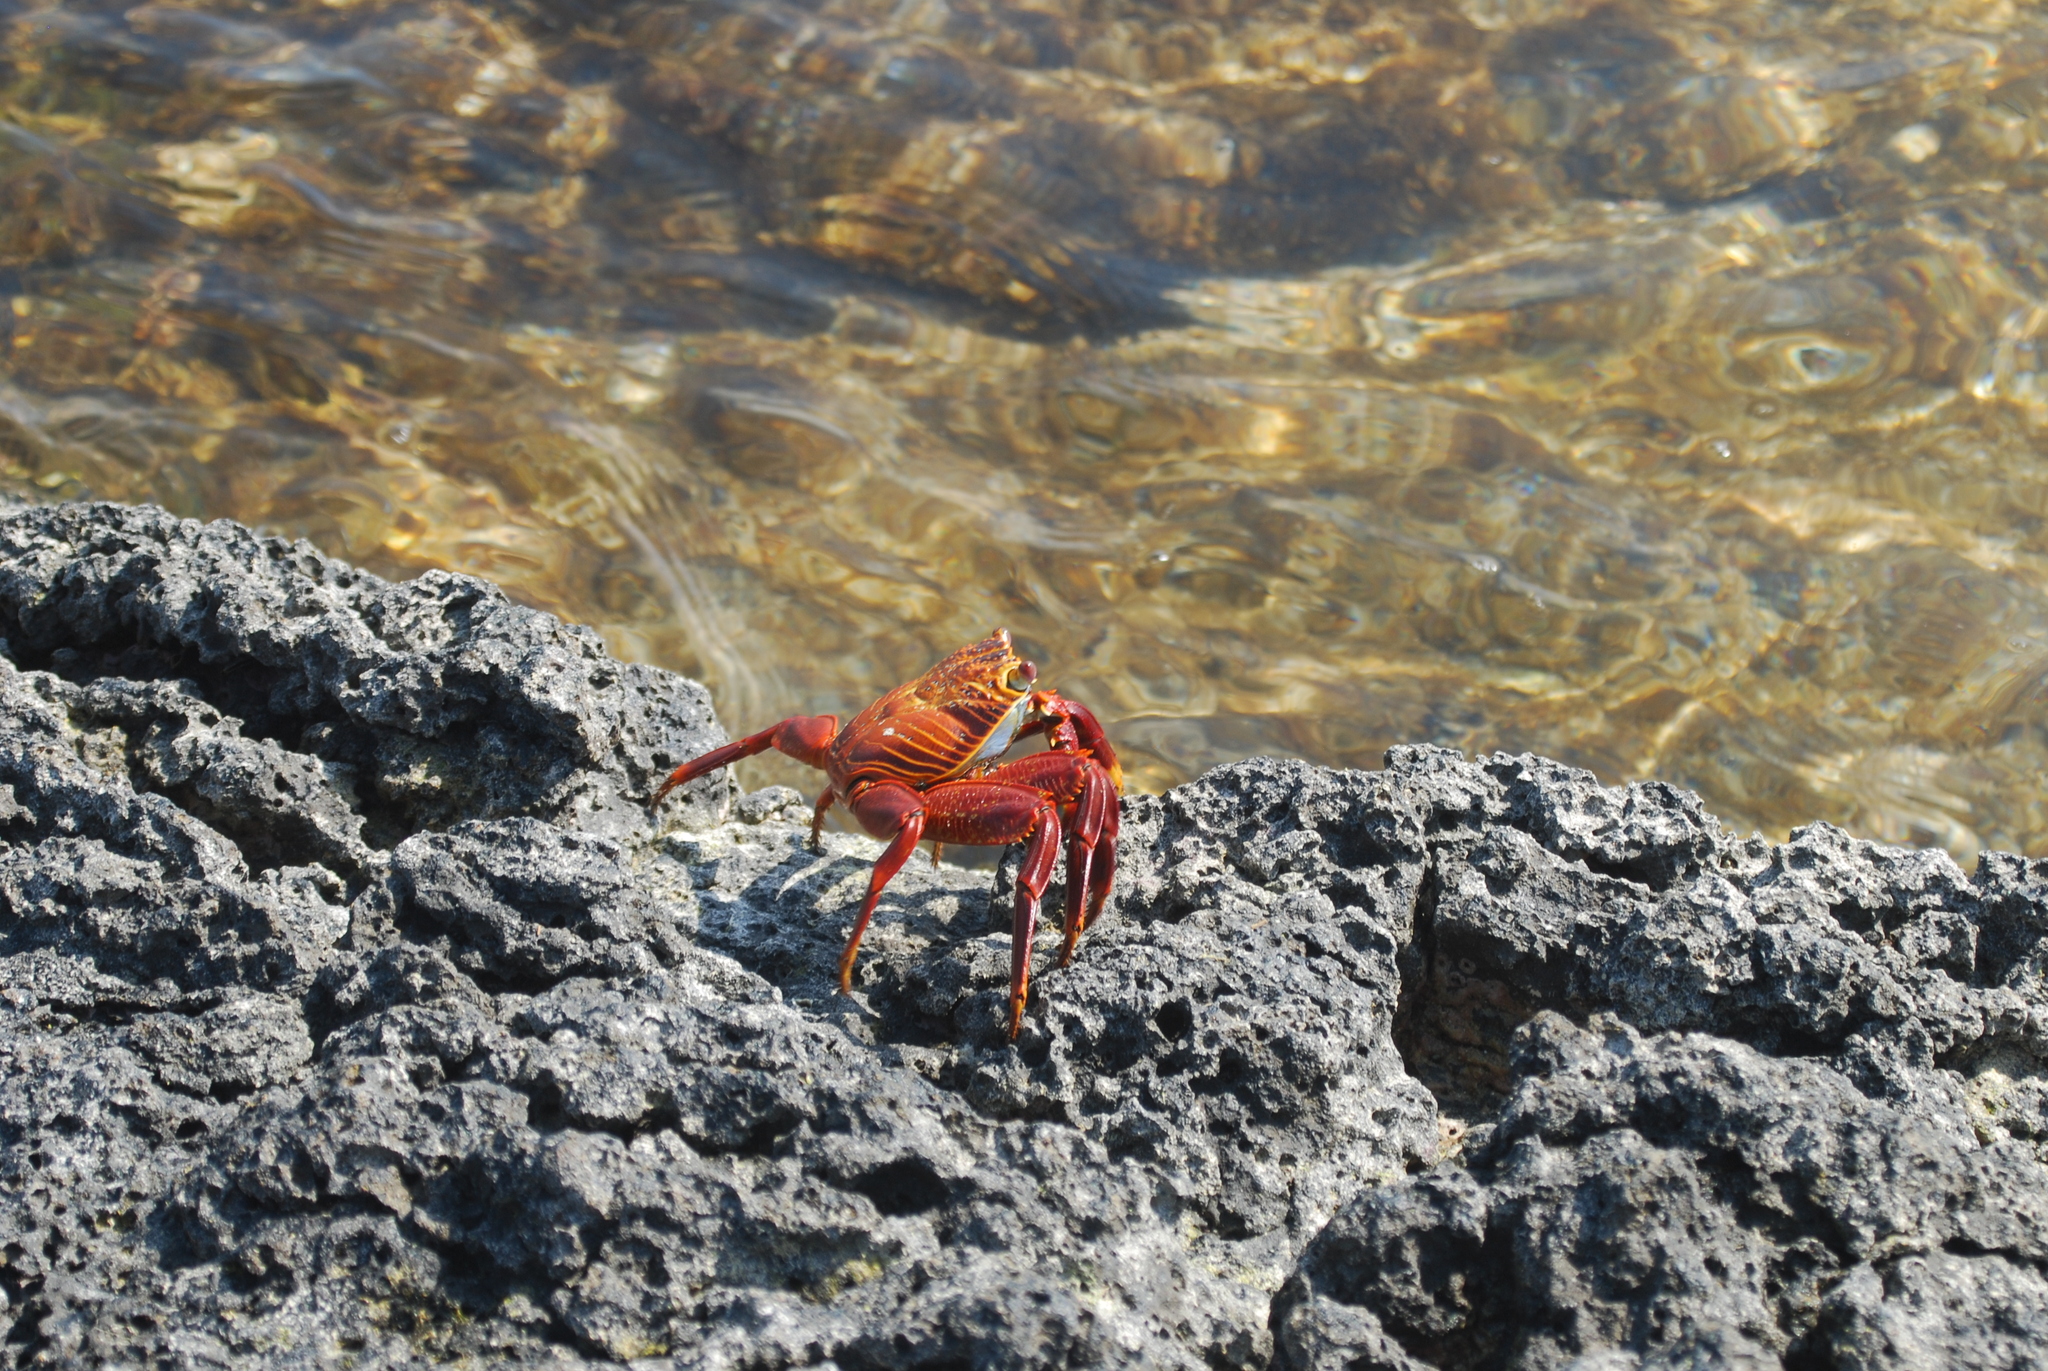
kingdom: Animalia
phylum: Arthropoda
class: Malacostraca
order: Decapoda
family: Grapsidae
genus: Grapsus
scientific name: Grapsus grapsus
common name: Sally lightfoot
